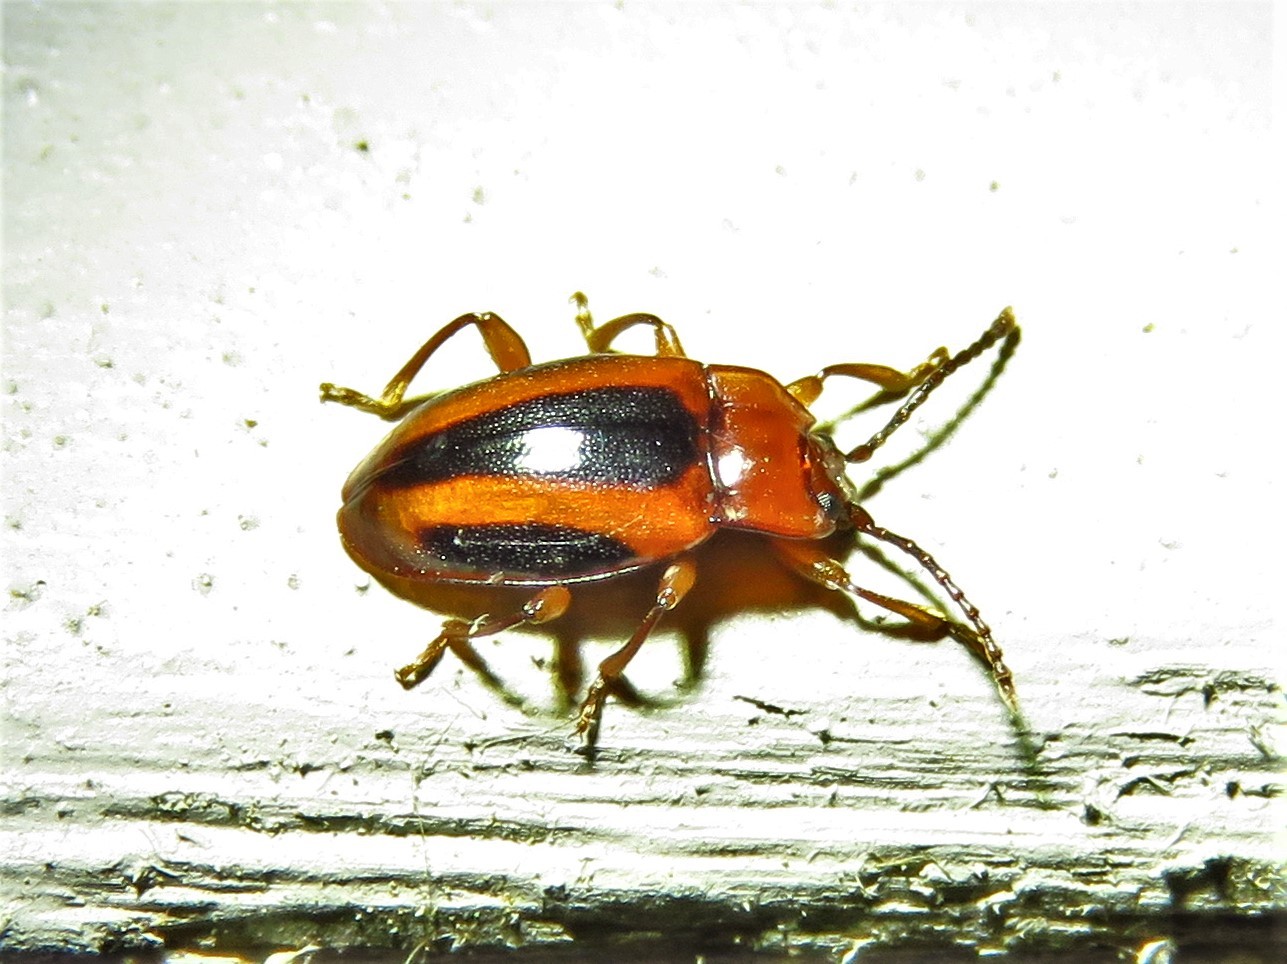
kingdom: Animalia
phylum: Arthropoda
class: Insecta
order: Coleoptera
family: Endomychidae
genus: Aphorista
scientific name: Aphorista vittata
